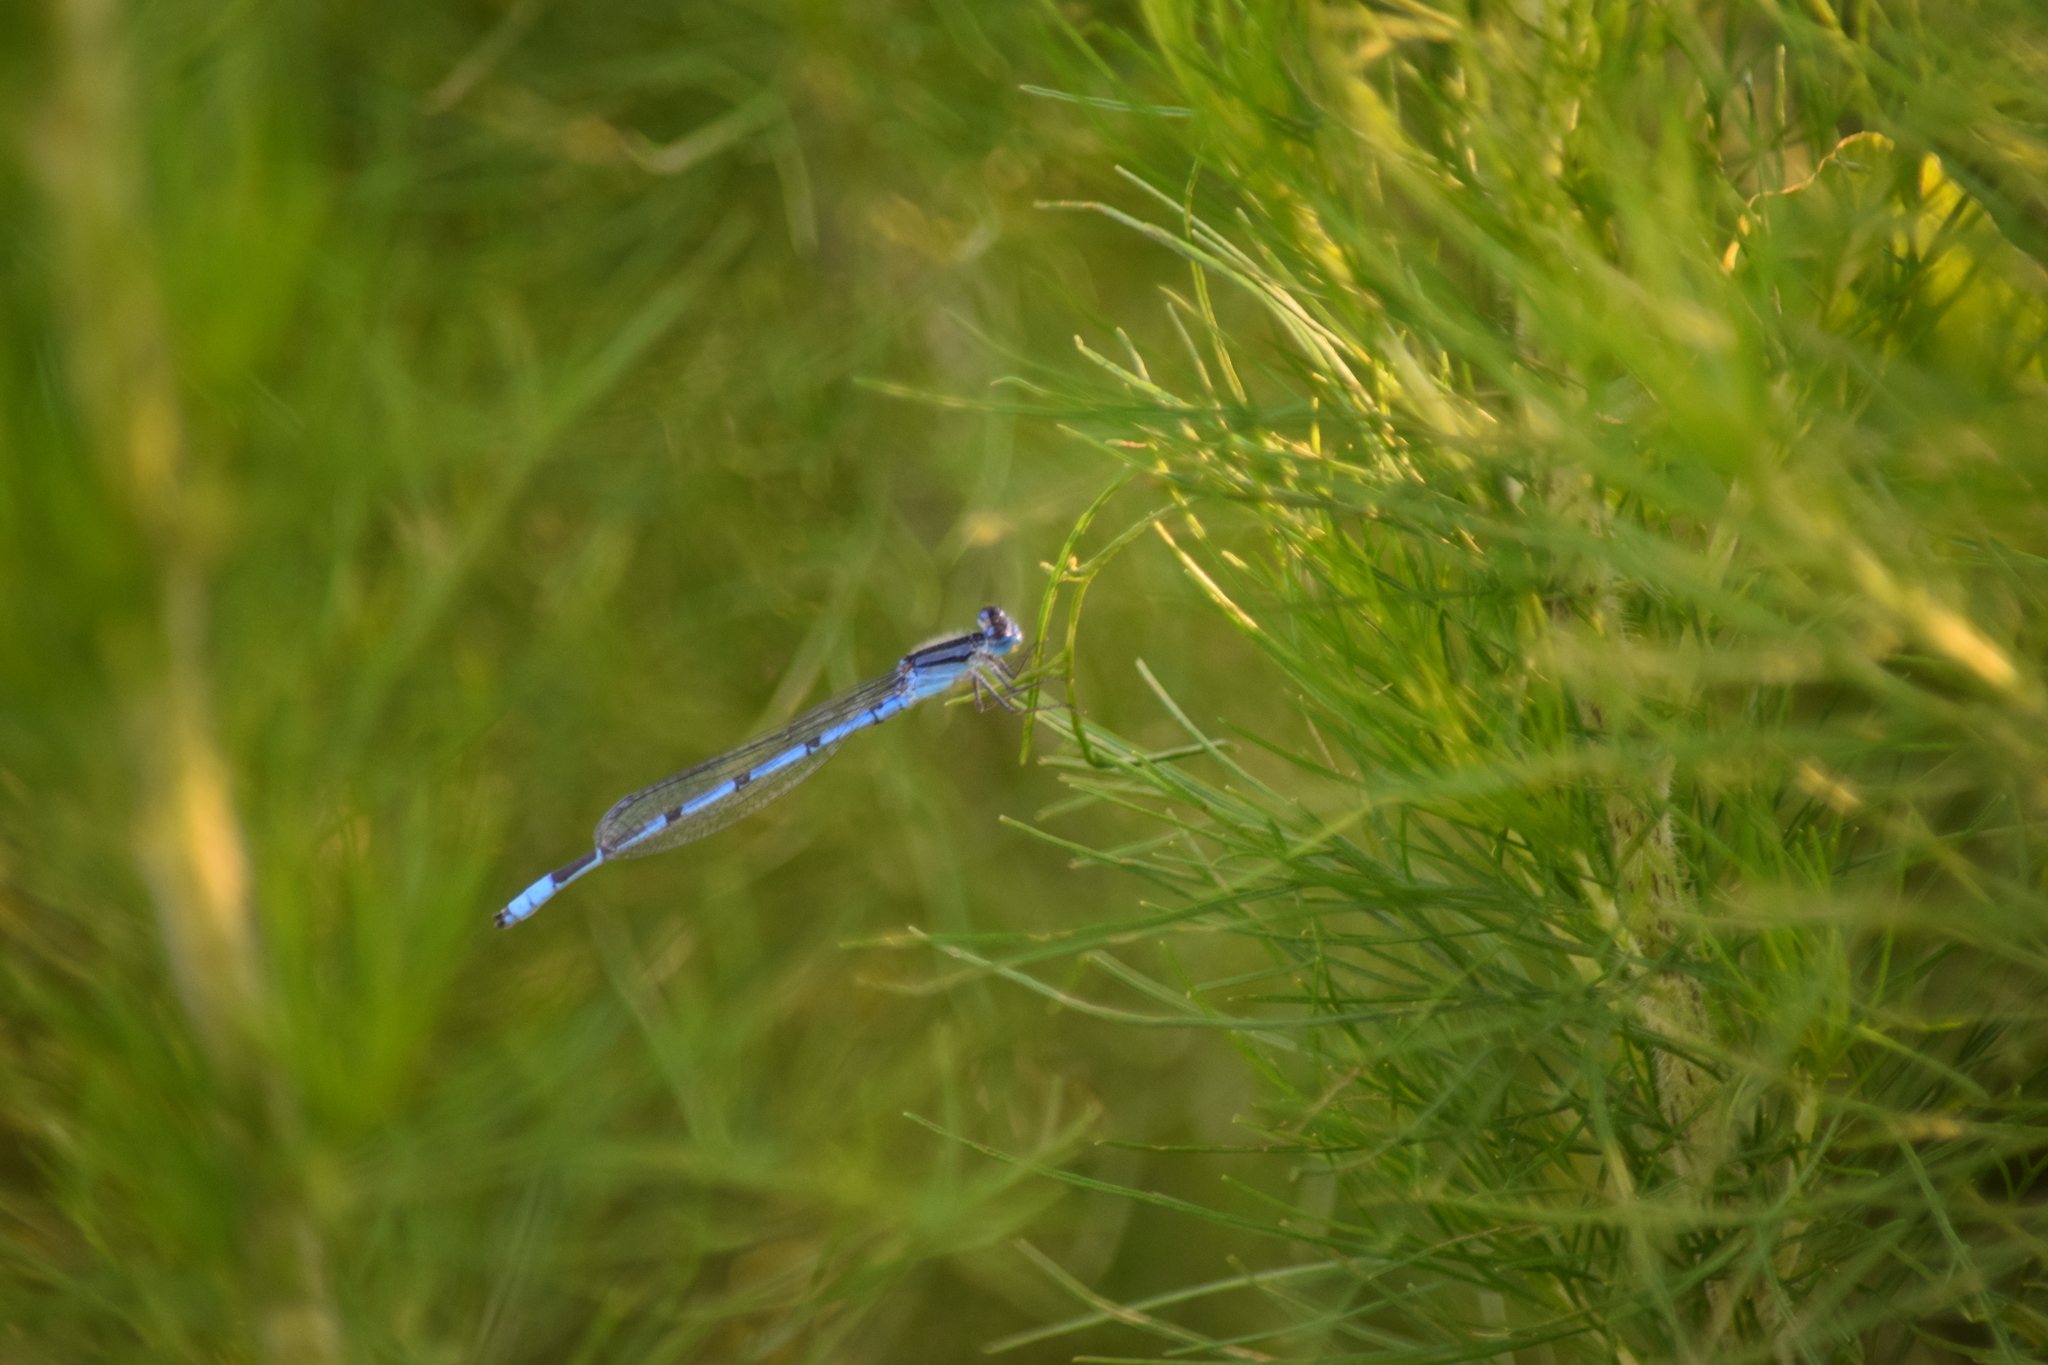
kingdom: Animalia
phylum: Arthropoda
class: Insecta
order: Odonata
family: Coenagrionidae
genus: Enallagma
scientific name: Enallagma civile
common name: Damselfly
